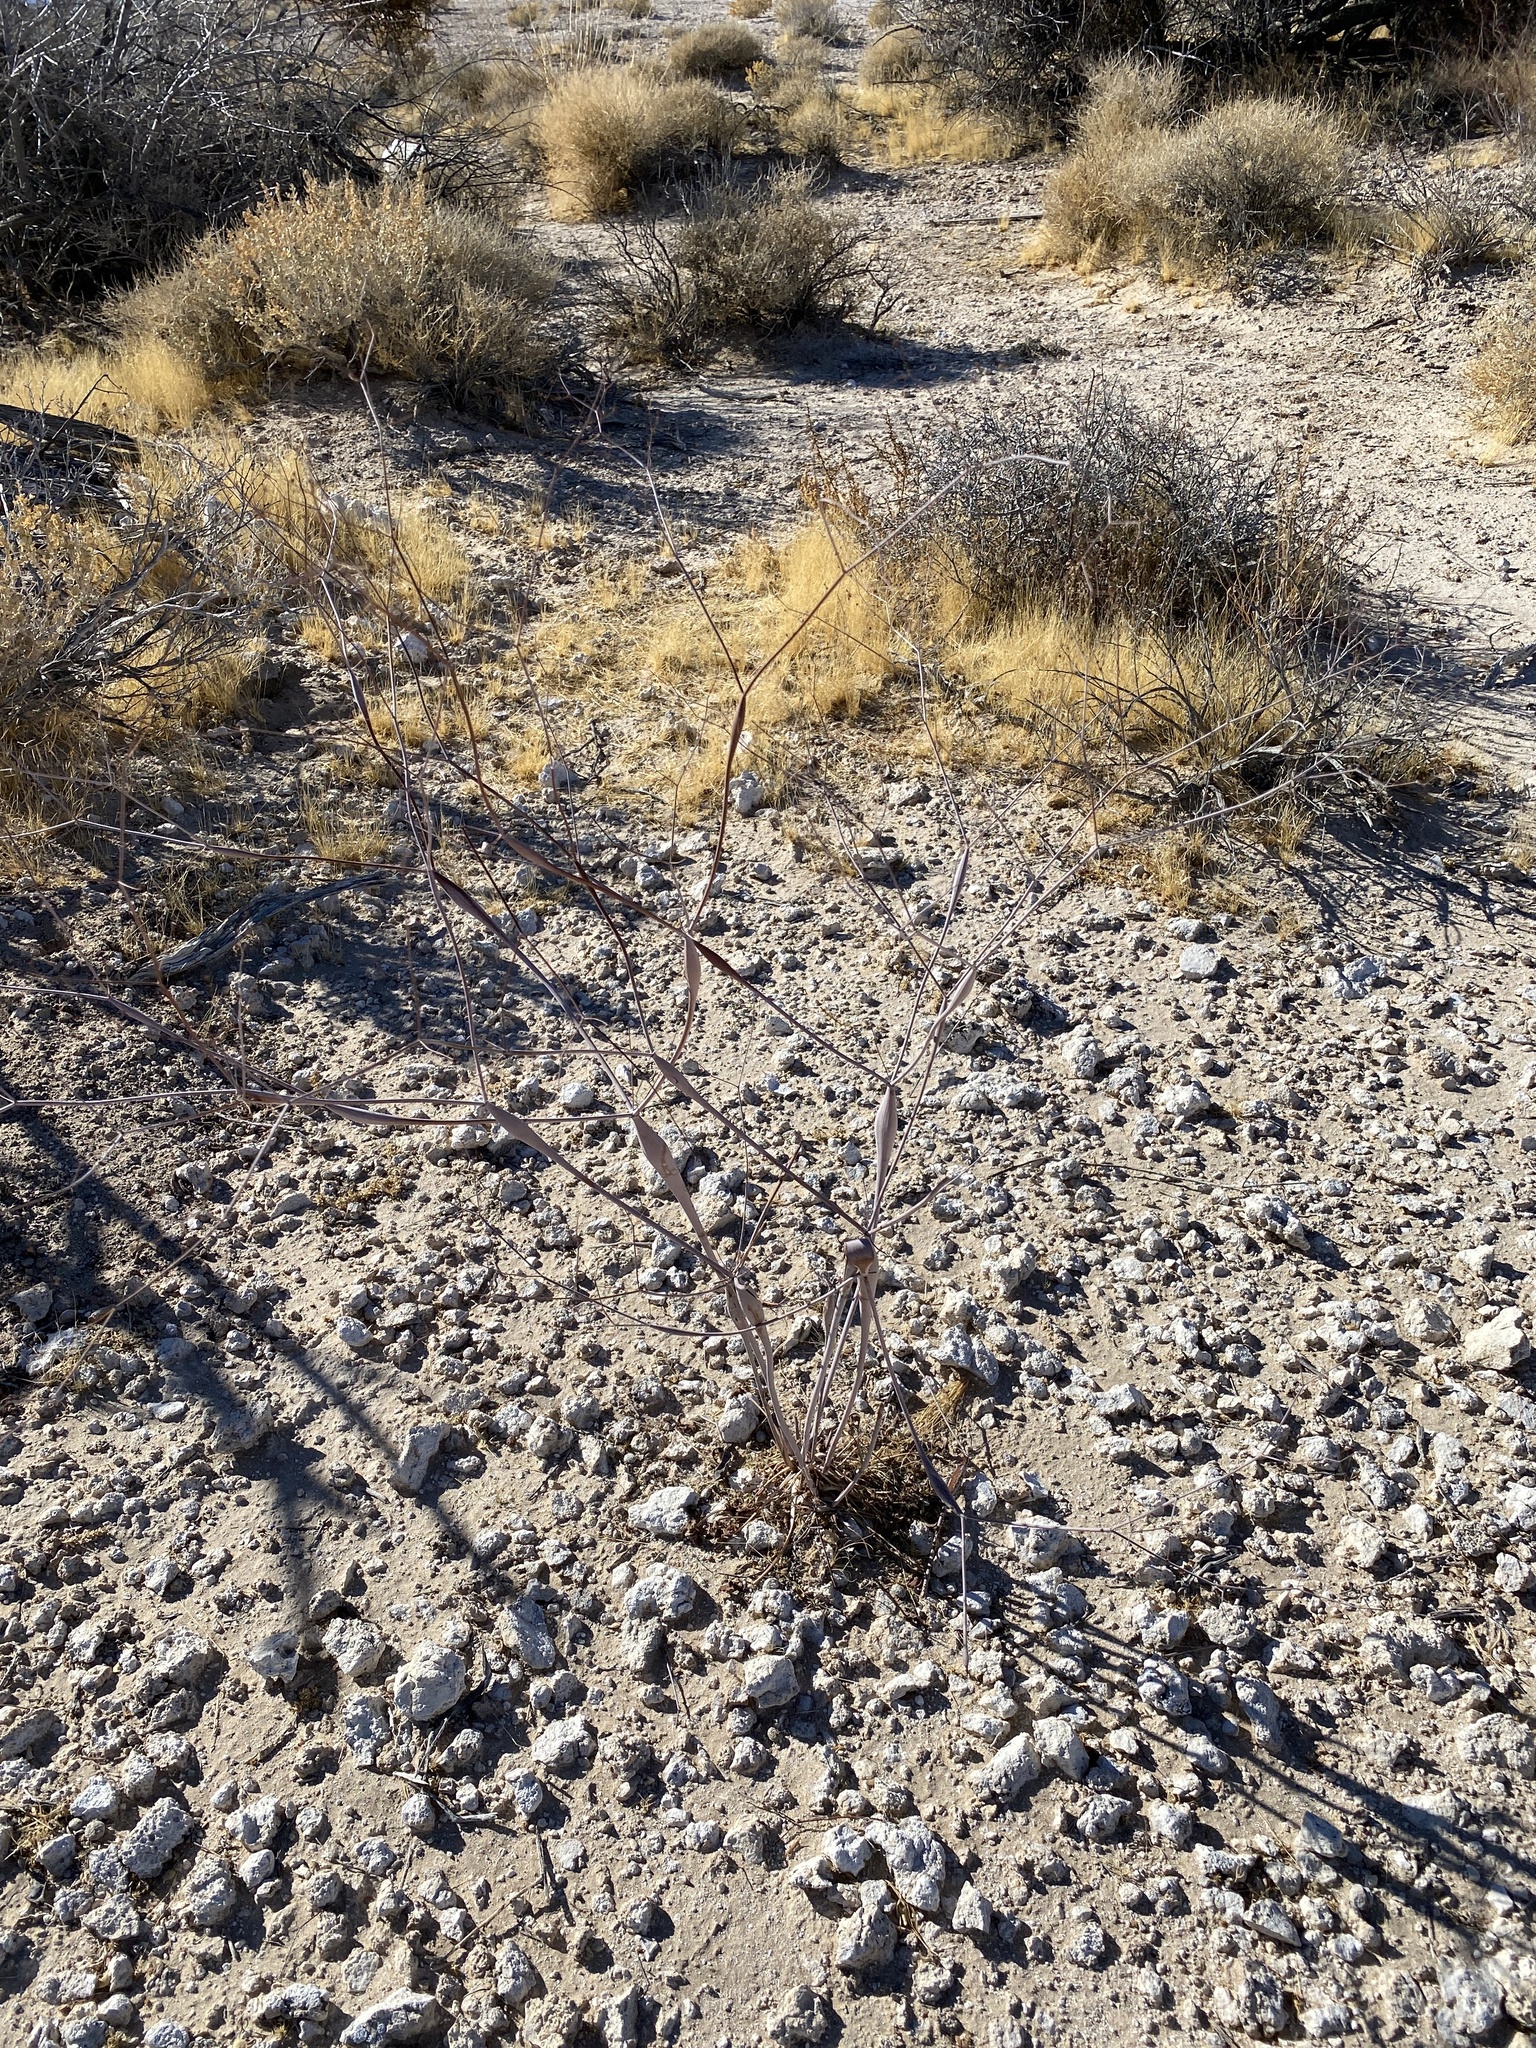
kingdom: Plantae
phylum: Tracheophyta
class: Magnoliopsida
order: Caryophyllales
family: Polygonaceae
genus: Eriogonum
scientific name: Eriogonum inflatum
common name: Desert trumpet
